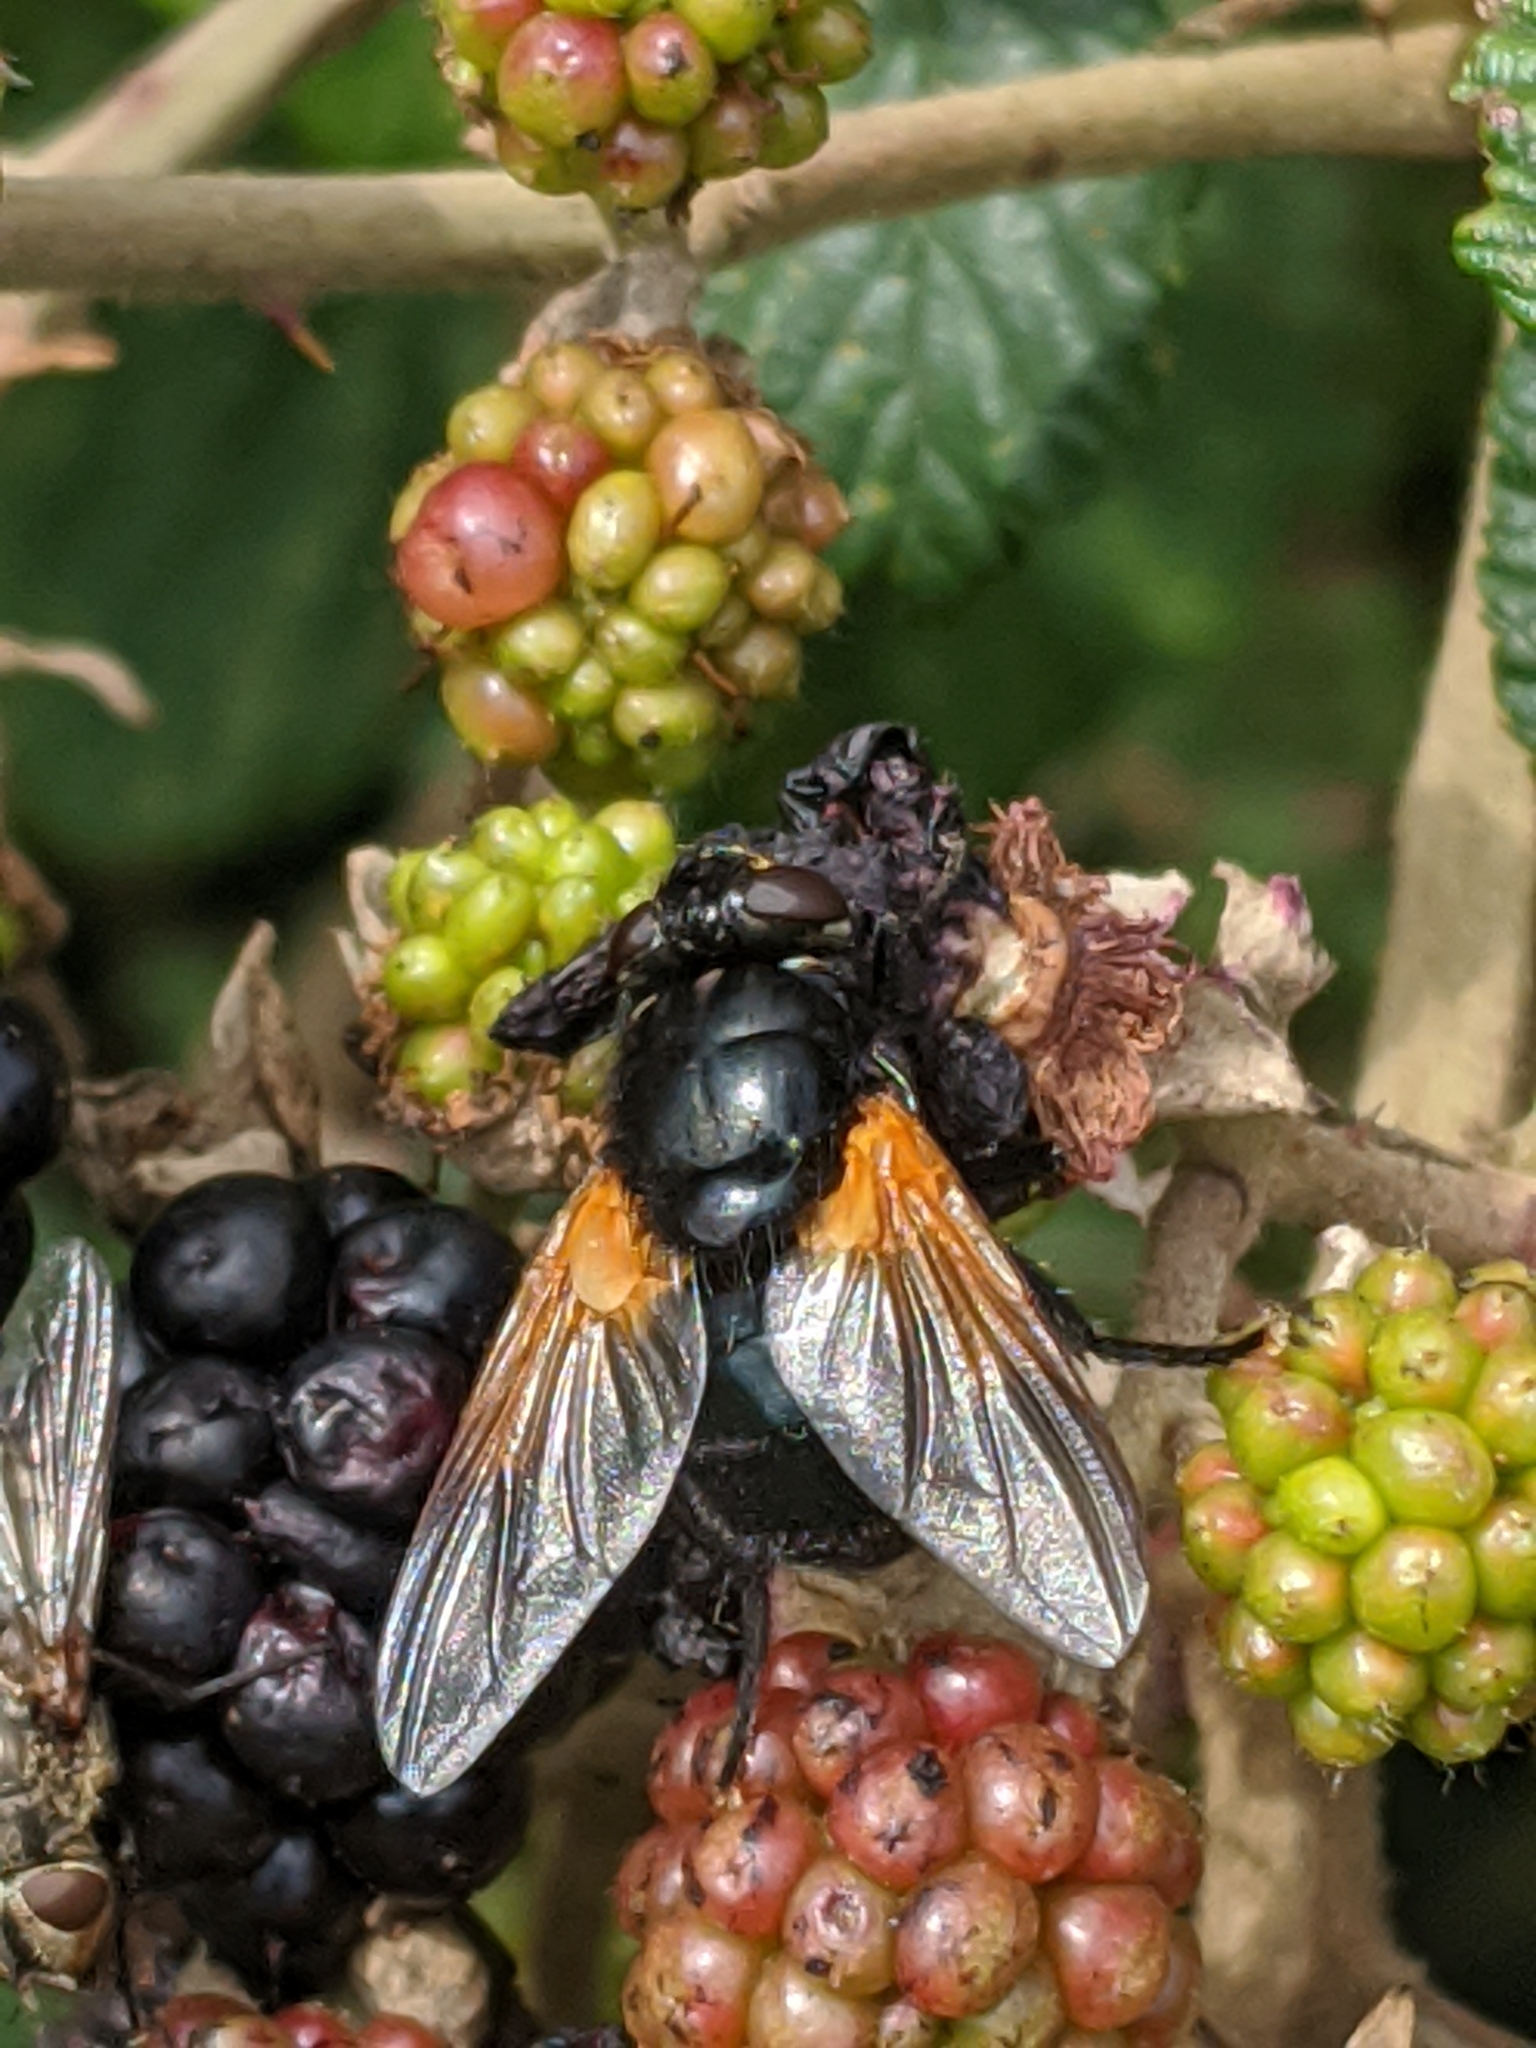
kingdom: Animalia
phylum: Arthropoda
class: Insecta
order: Diptera
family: Muscidae
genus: Mesembrina
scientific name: Mesembrina meridiana
